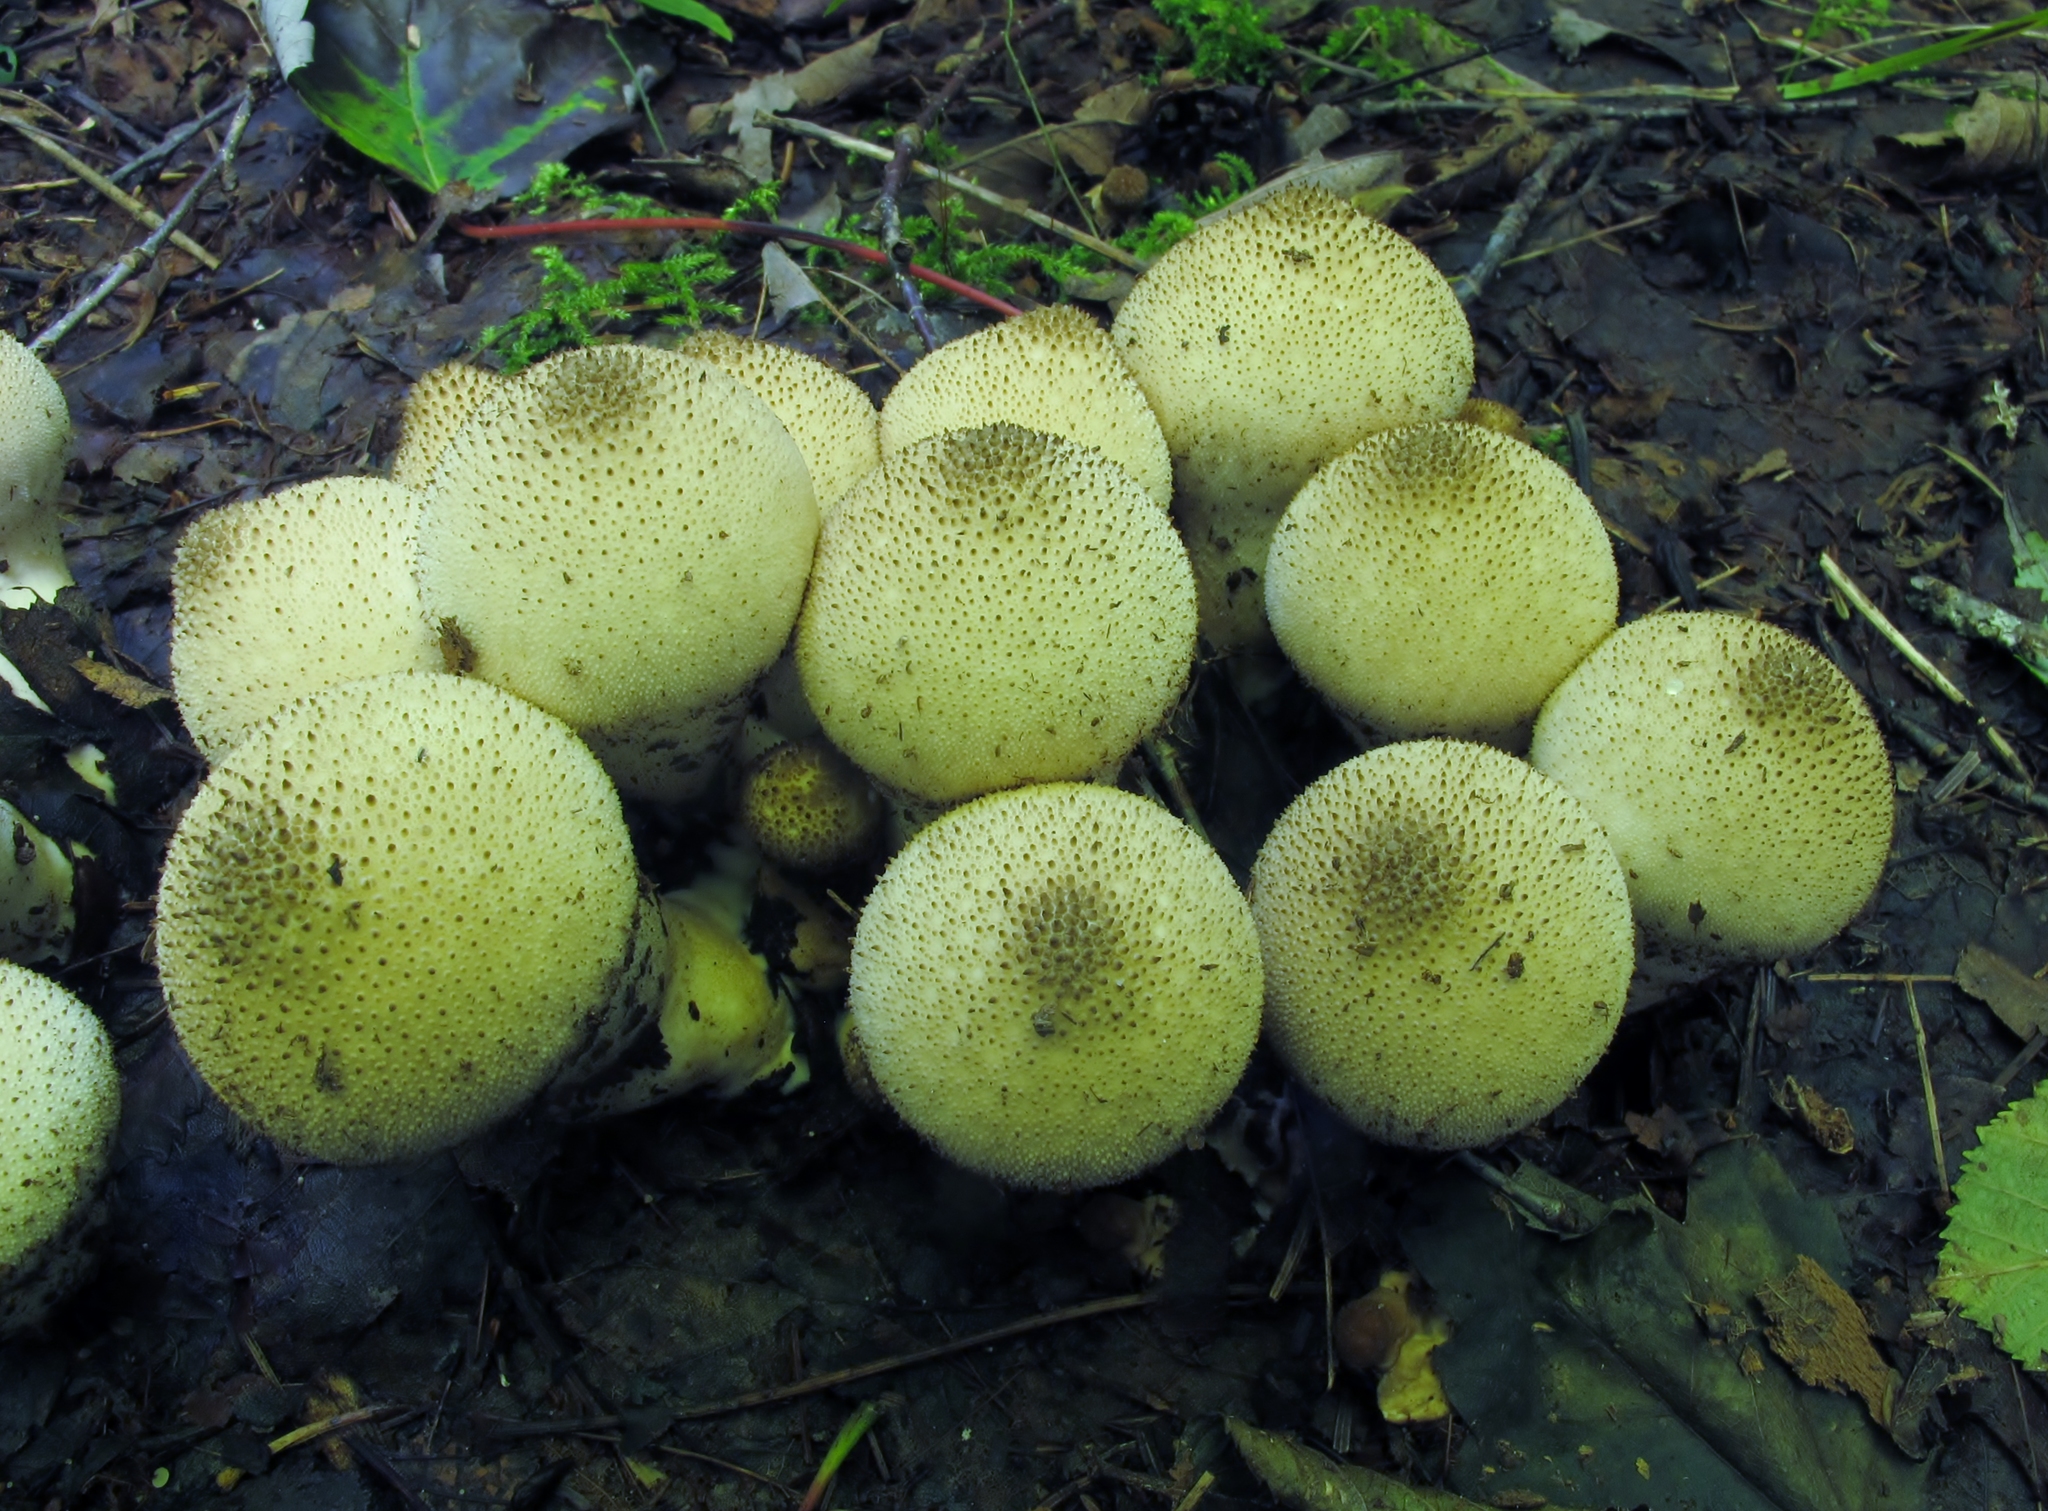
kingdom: Fungi
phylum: Basidiomycota
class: Agaricomycetes
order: Agaricales
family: Lycoperdaceae
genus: Lycoperdon
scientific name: Lycoperdon perlatum
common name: Common puffball
